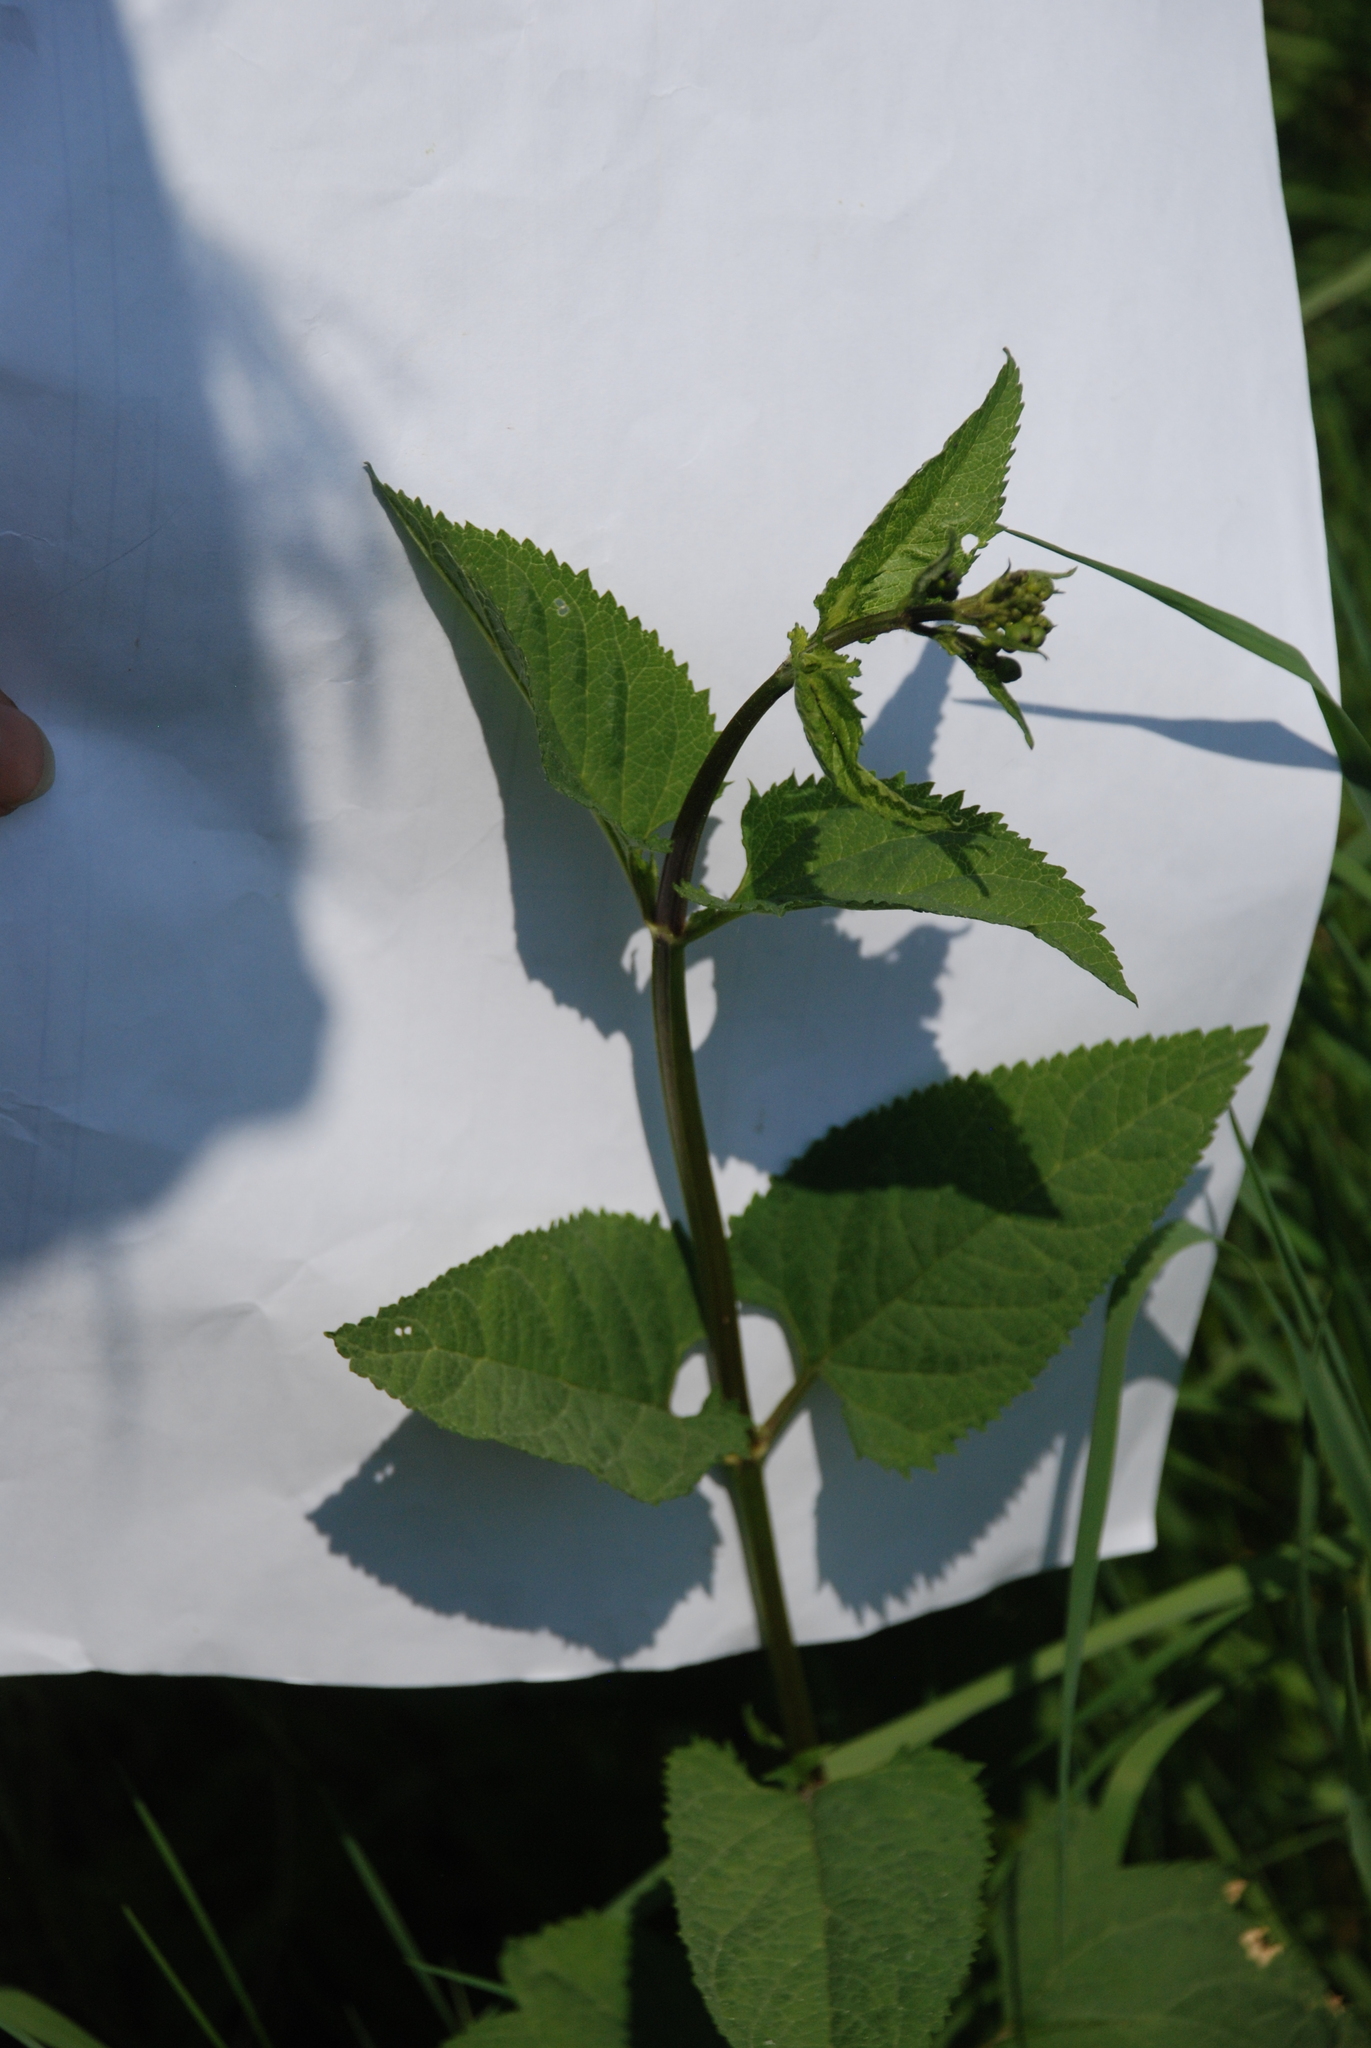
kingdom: Plantae
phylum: Tracheophyta
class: Magnoliopsida
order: Lamiales
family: Scrophulariaceae
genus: Scrophularia
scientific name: Scrophularia nodosa
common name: Common figwort
